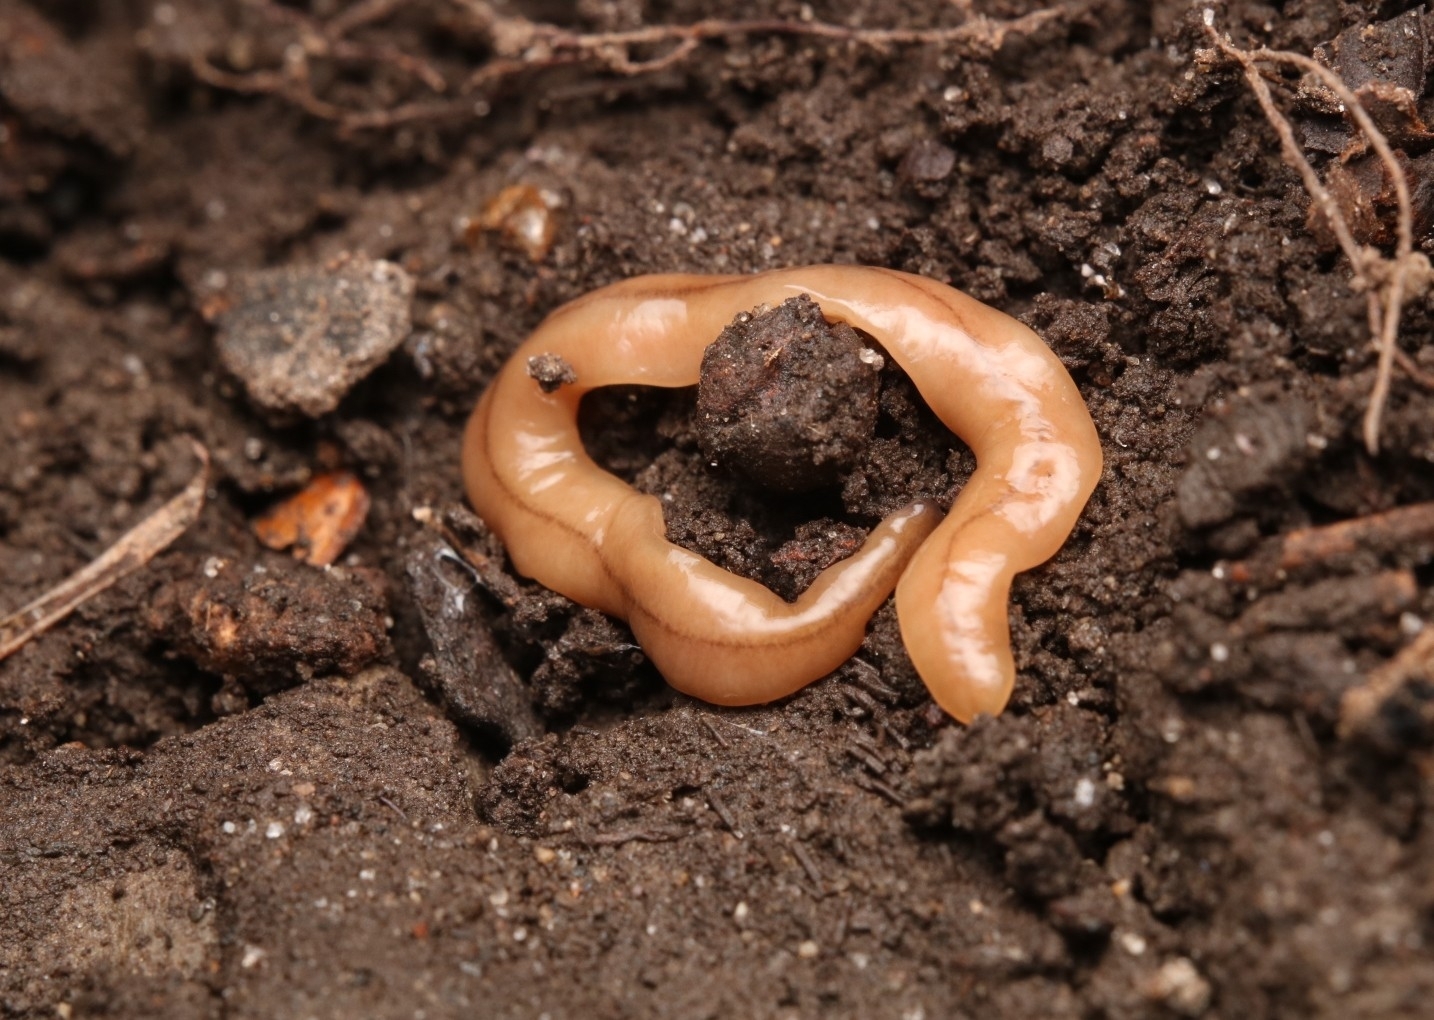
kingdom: Animalia
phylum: Platyhelminthes
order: Tricladida
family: Geoplanidae
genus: Bipalium
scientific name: Bipalium adventitium
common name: Land planarian
